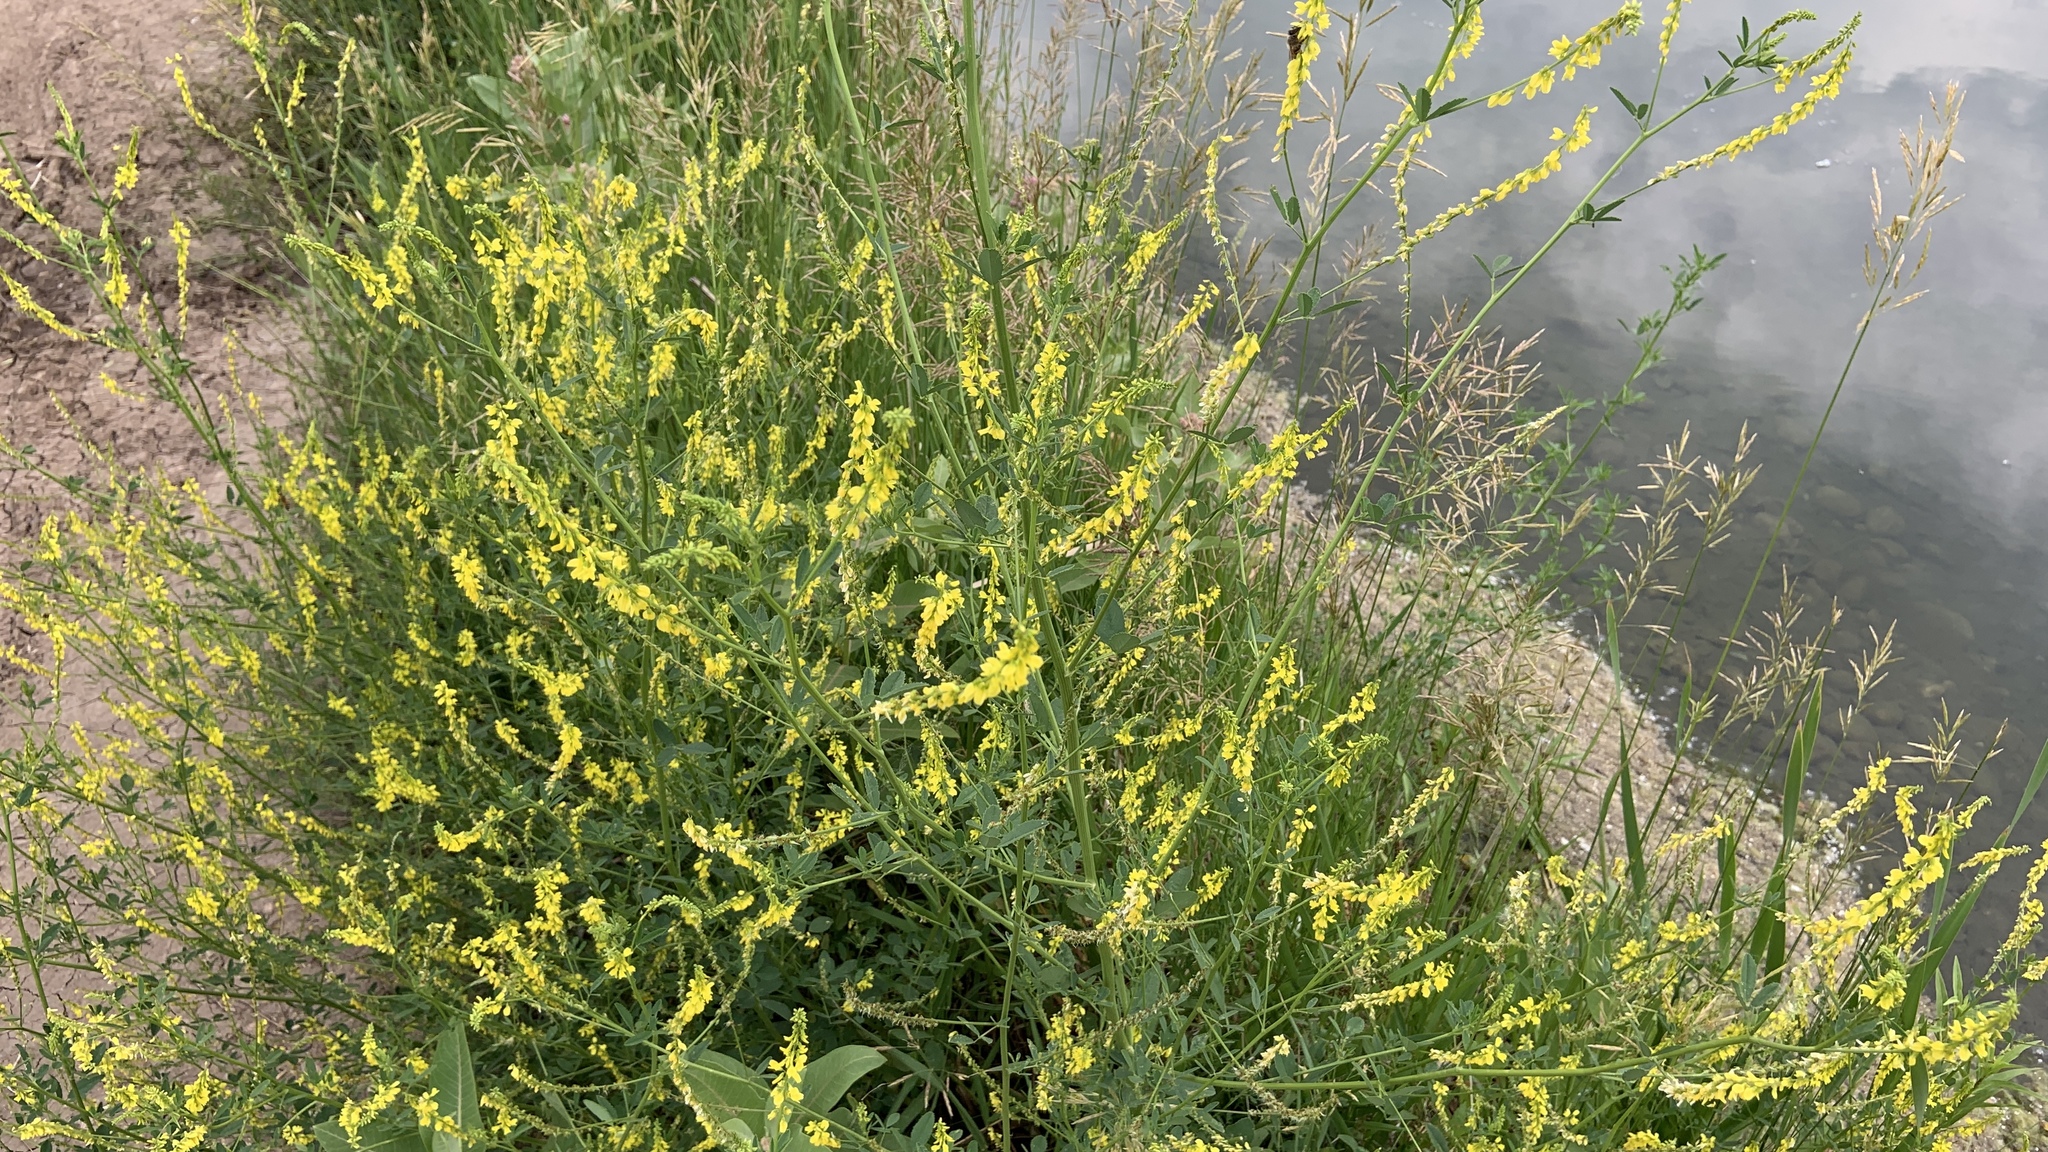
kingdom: Plantae
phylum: Tracheophyta
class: Magnoliopsida
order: Fabales
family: Fabaceae
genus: Melilotus
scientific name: Melilotus officinalis
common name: Sweetclover
